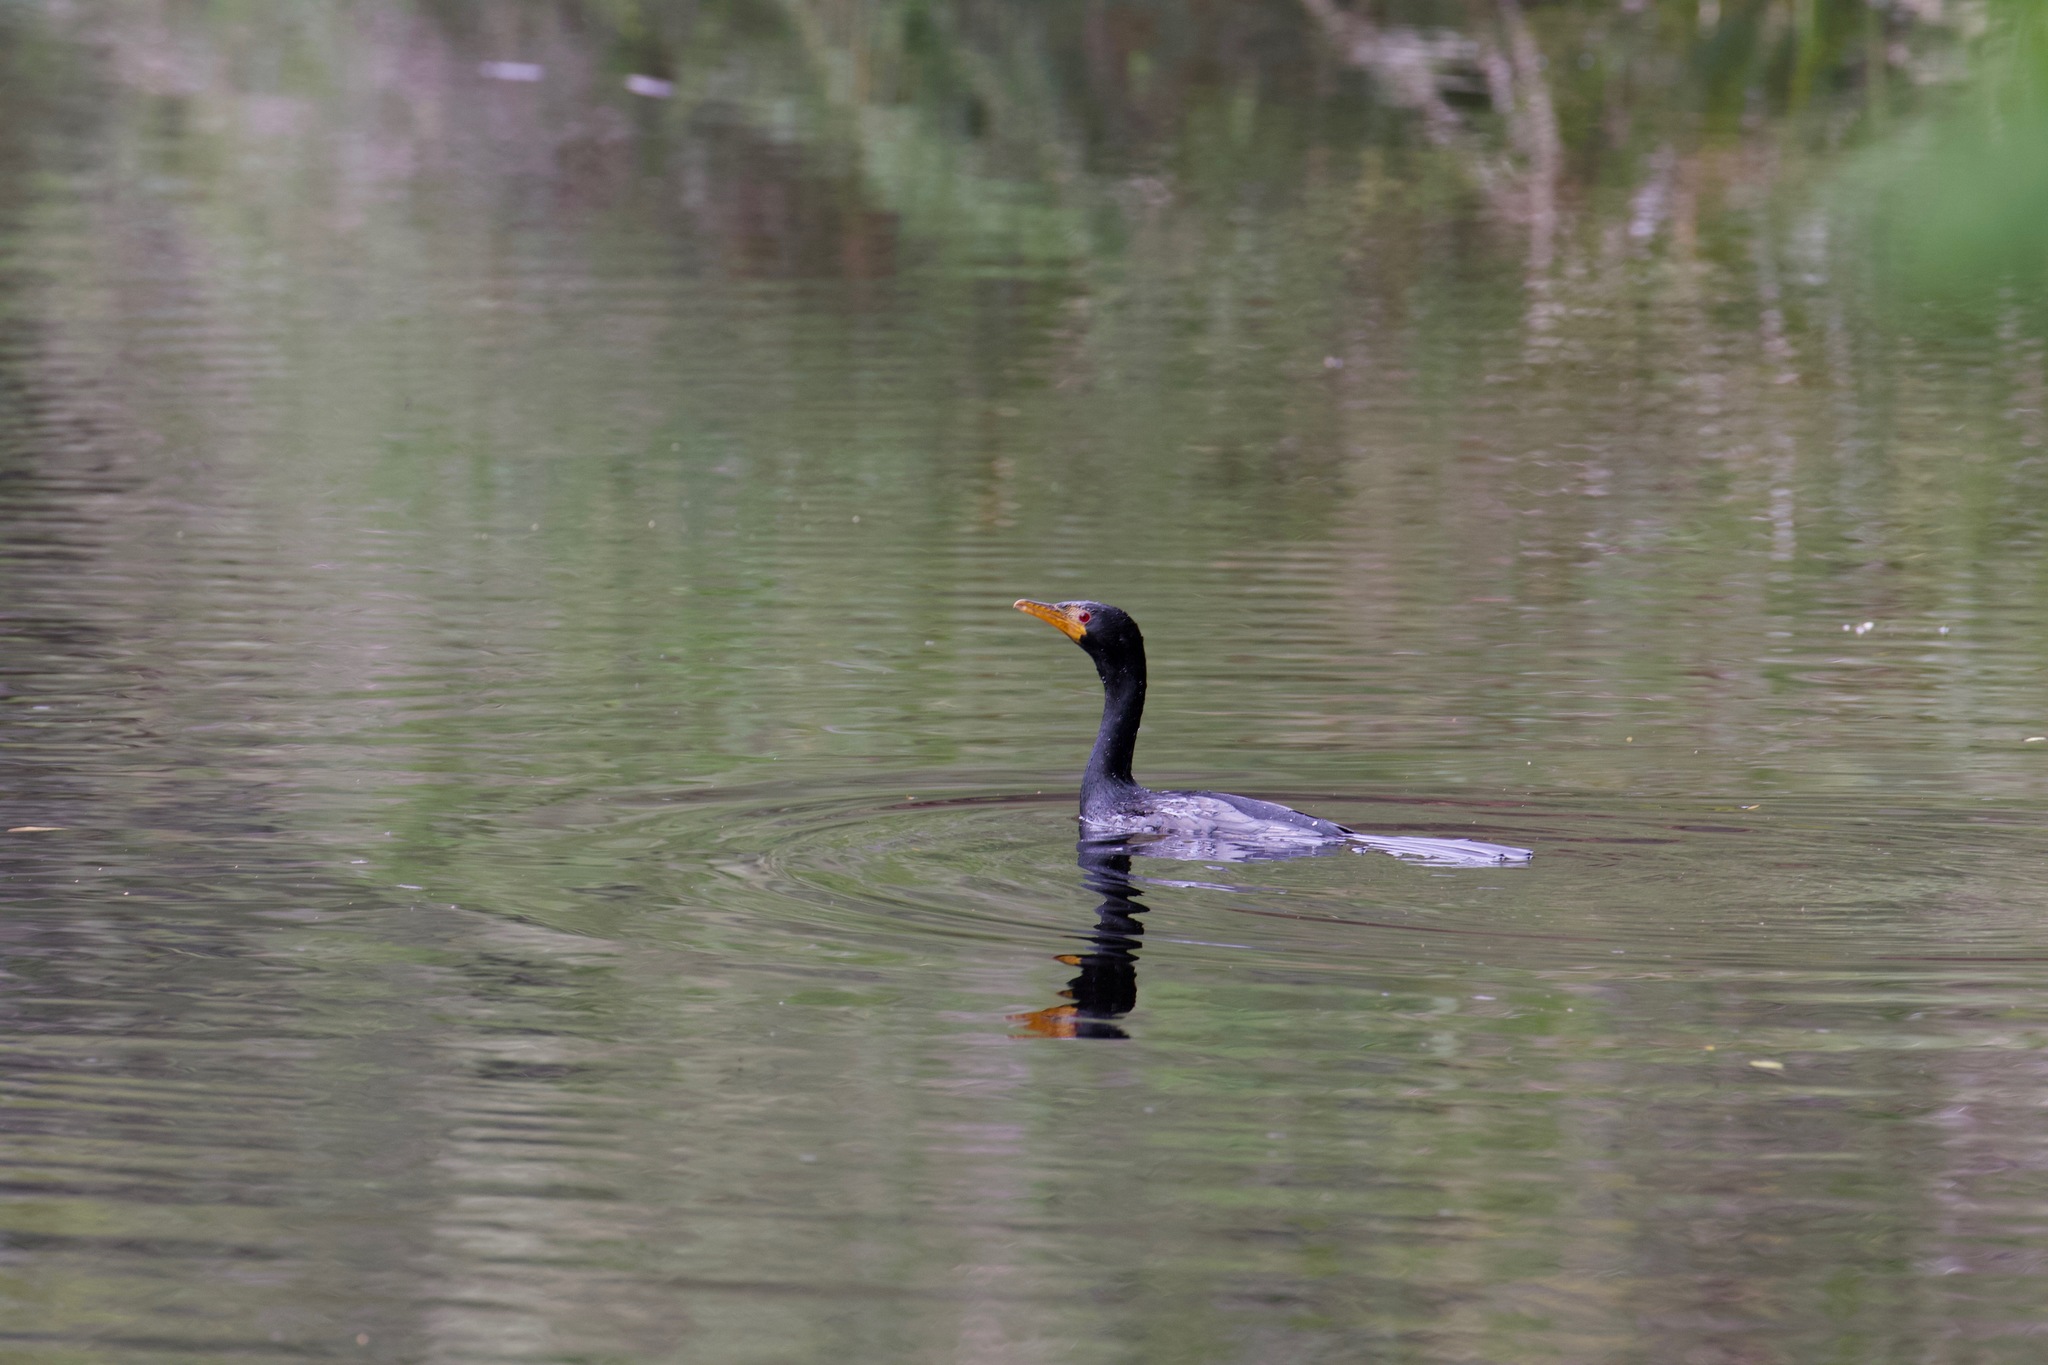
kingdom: Animalia
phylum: Chordata
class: Aves
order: Suliformes
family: Phalacrocoracidae
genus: Microcarbo
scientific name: Microcarbo africanus
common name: Long-tailed cormorant
